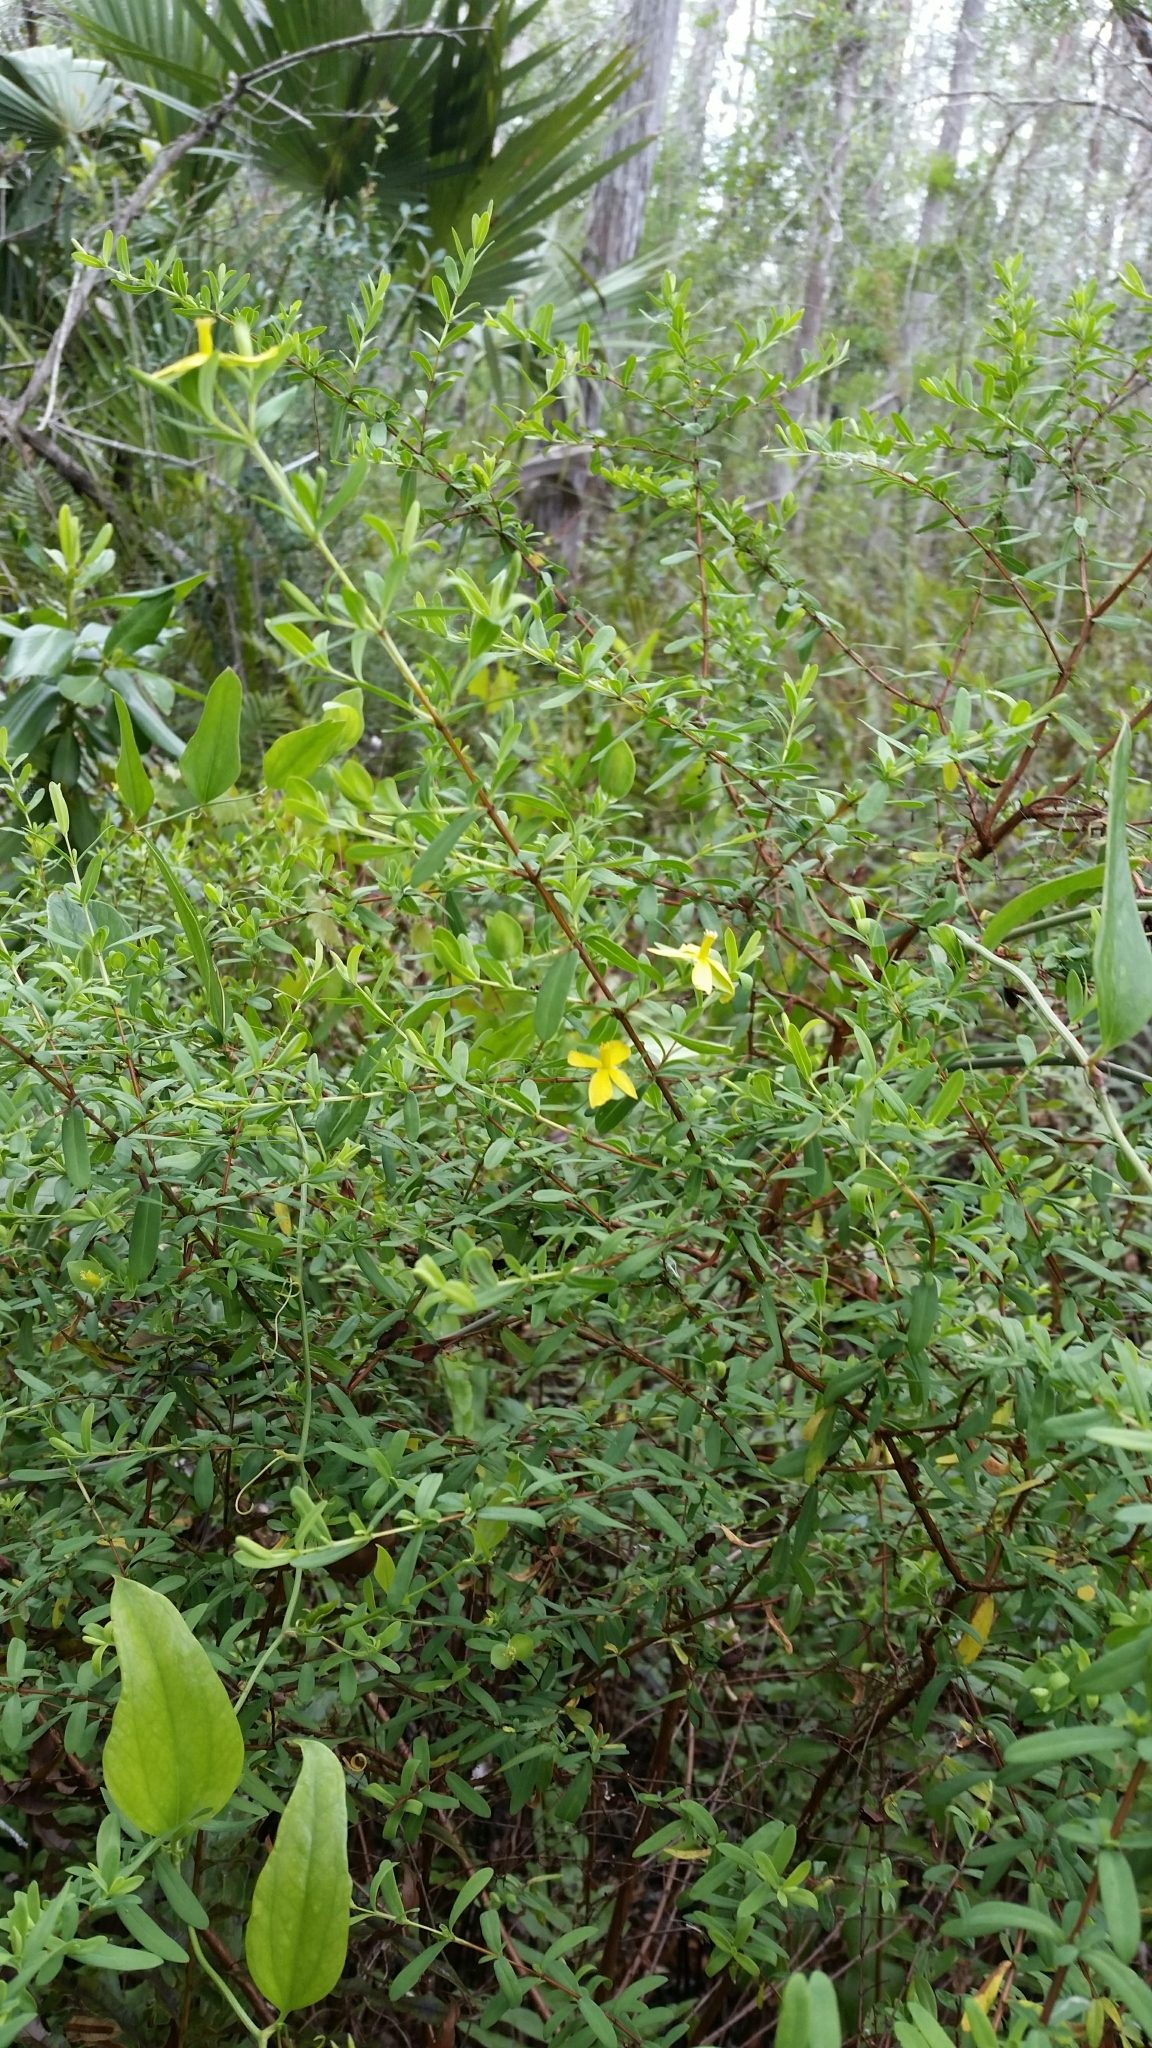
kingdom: Plantae
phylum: Tracheophyta
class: Magnoliopsida
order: Malpighiales
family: Hypericaceae
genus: Hypericum
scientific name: Hypericum hypericoides
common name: St. andrew's cross
